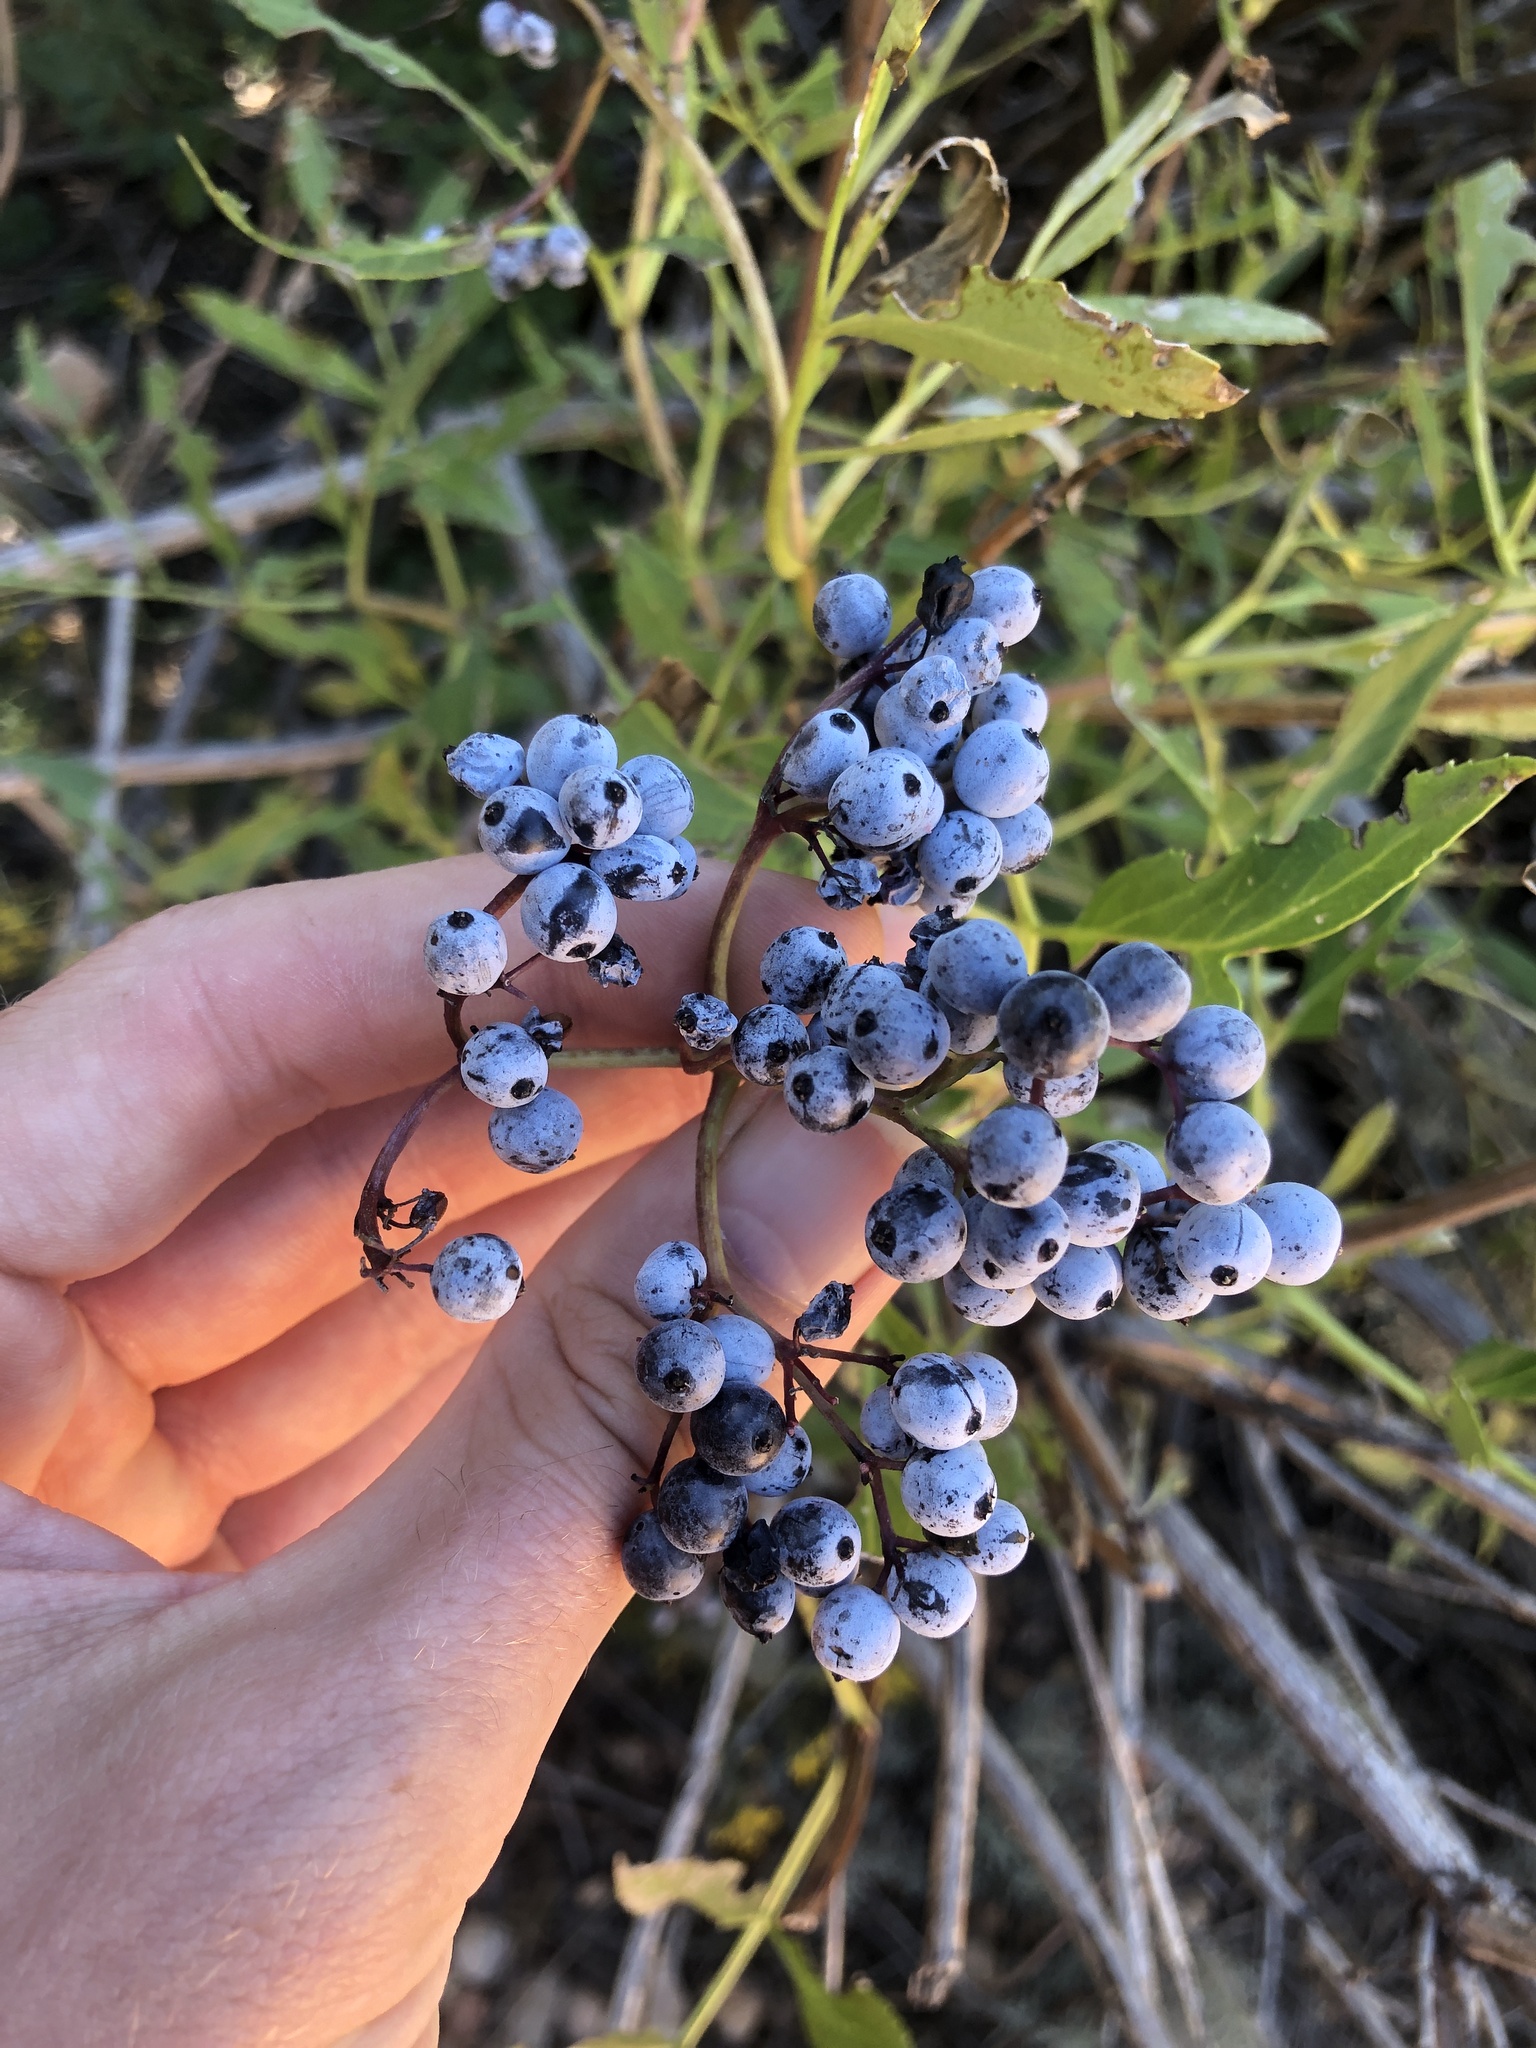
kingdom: Plantae
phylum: Tracheophyta
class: Magnoliopsida
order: Dipsacales
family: Viburnaceae
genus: Sambucus
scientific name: Sambucus cerulea
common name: Blue elder
